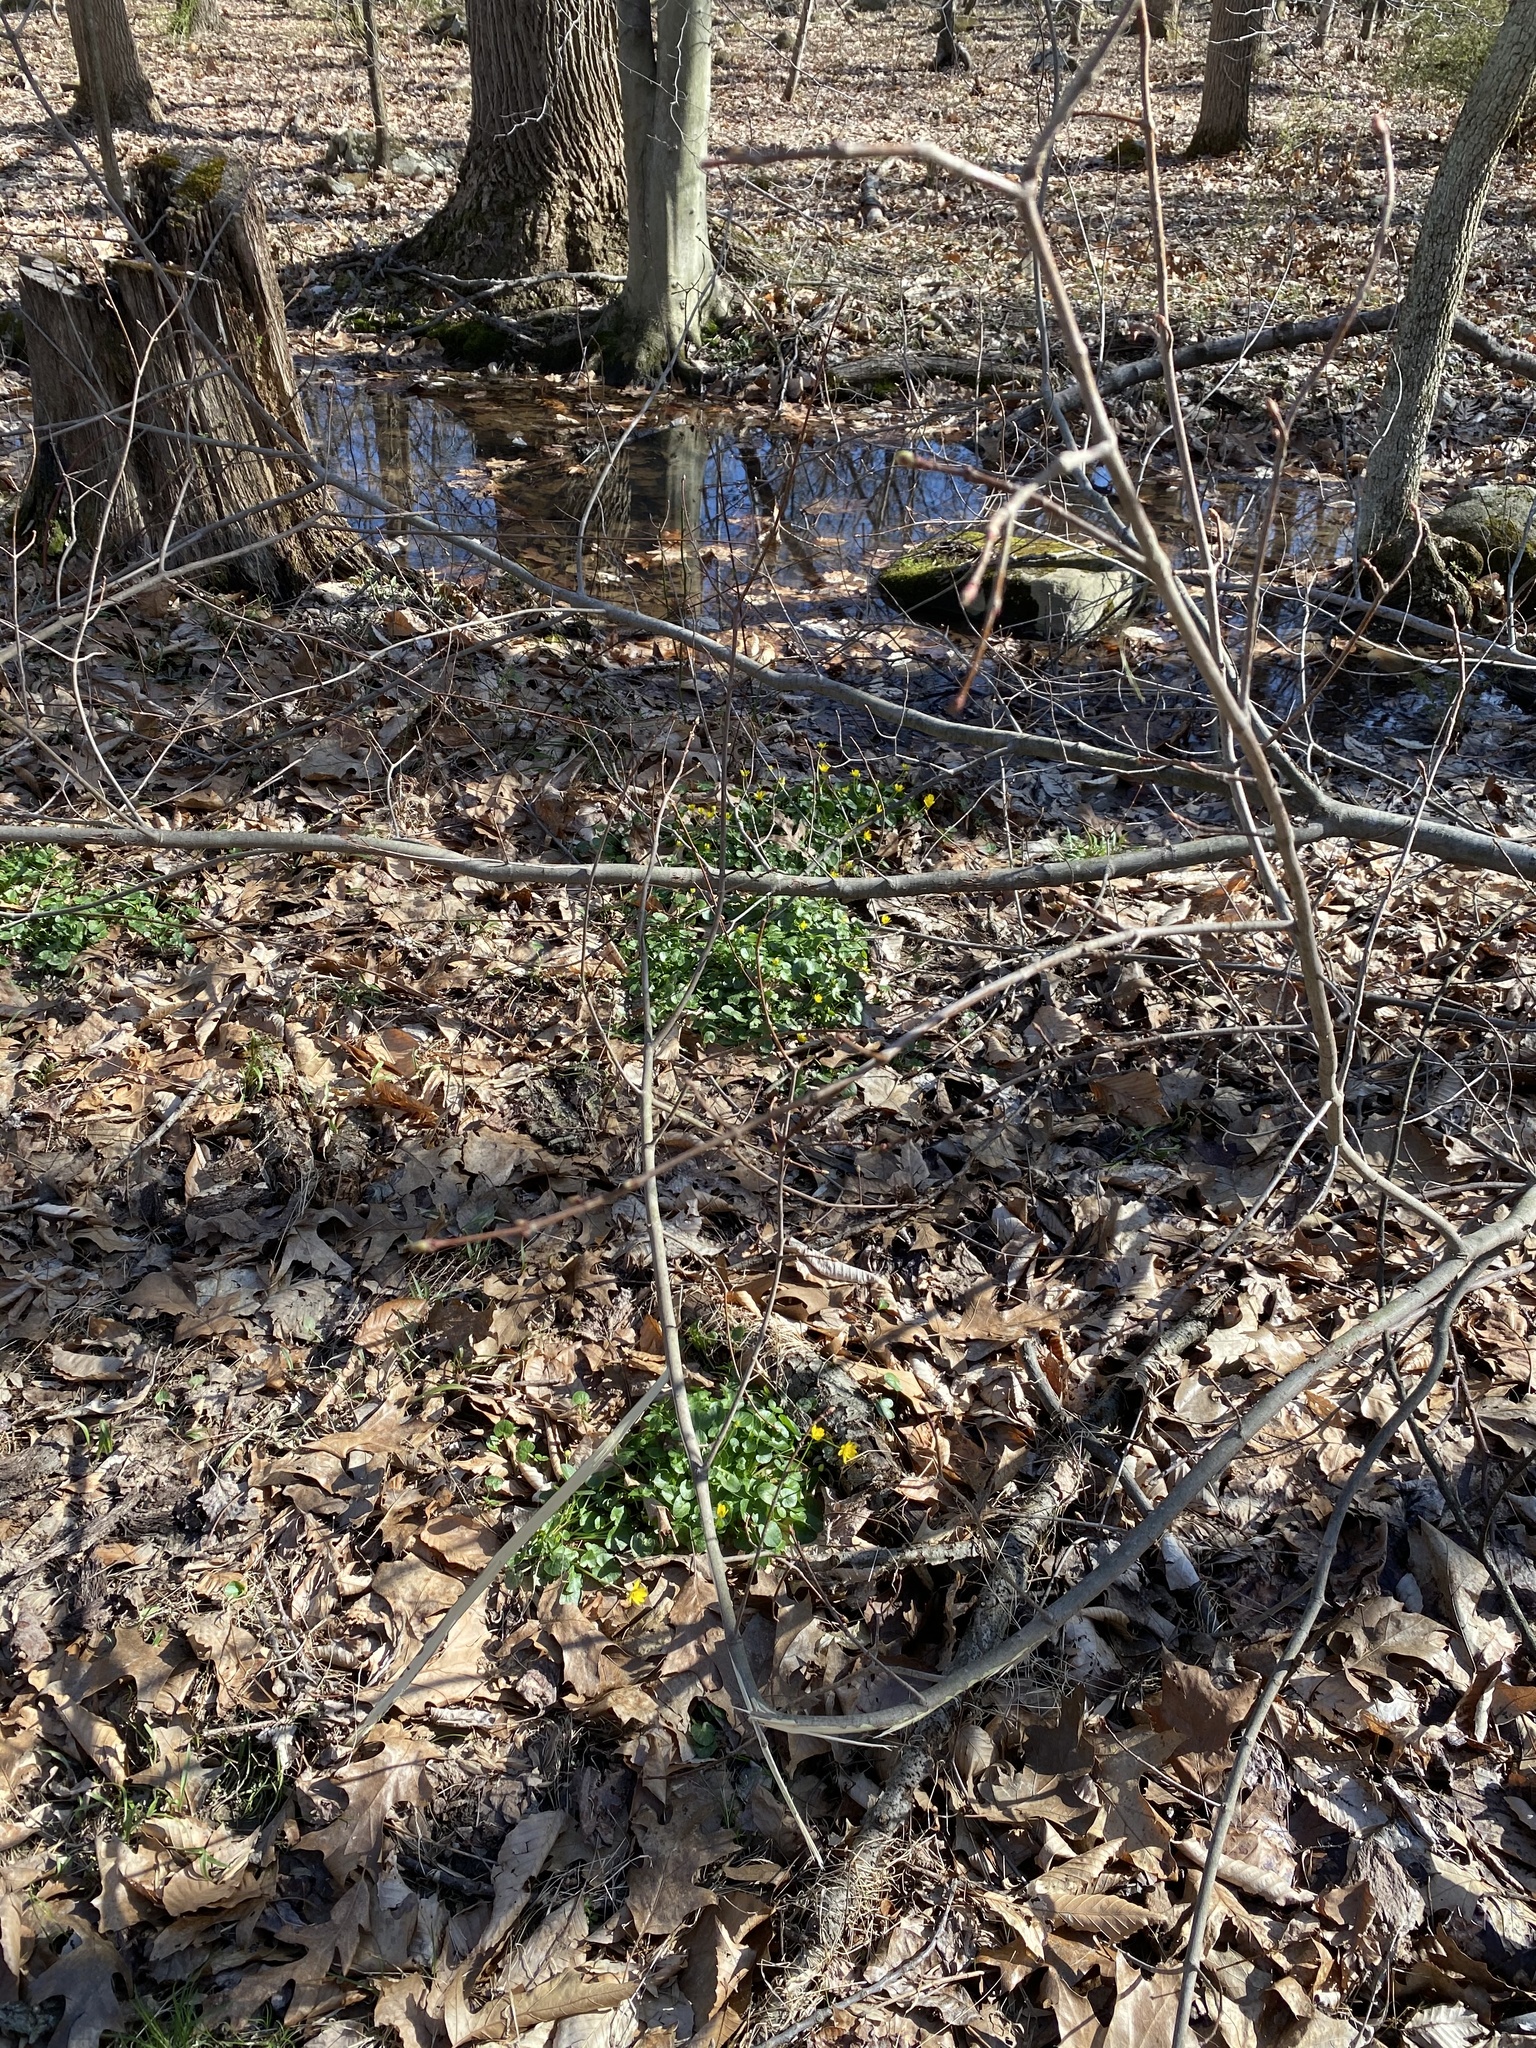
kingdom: Plantae
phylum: Tracheophyta
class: Magnoliopsida
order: Ranunculales
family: Ranunculaceae
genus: Ficaria
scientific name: Ficaria verna
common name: Lesser celandine
